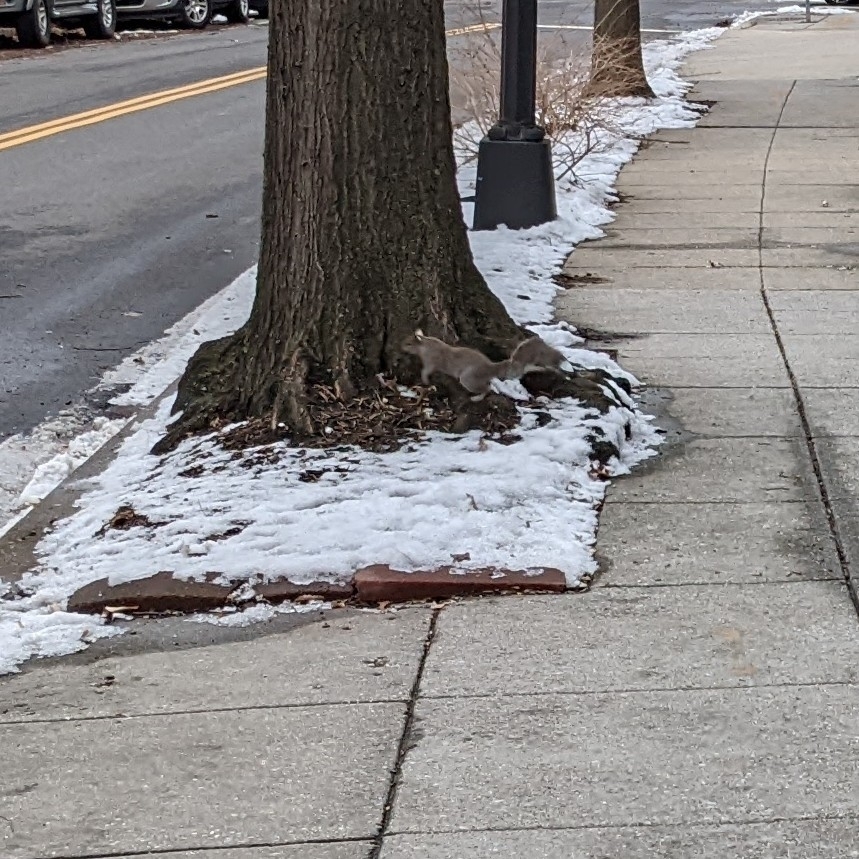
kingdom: Animalia
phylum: Chordata
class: Mammalia
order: Rodentia
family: Sciuridae
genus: Sciurus
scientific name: Sciurus carolinensis
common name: Eastern gray squirrel
